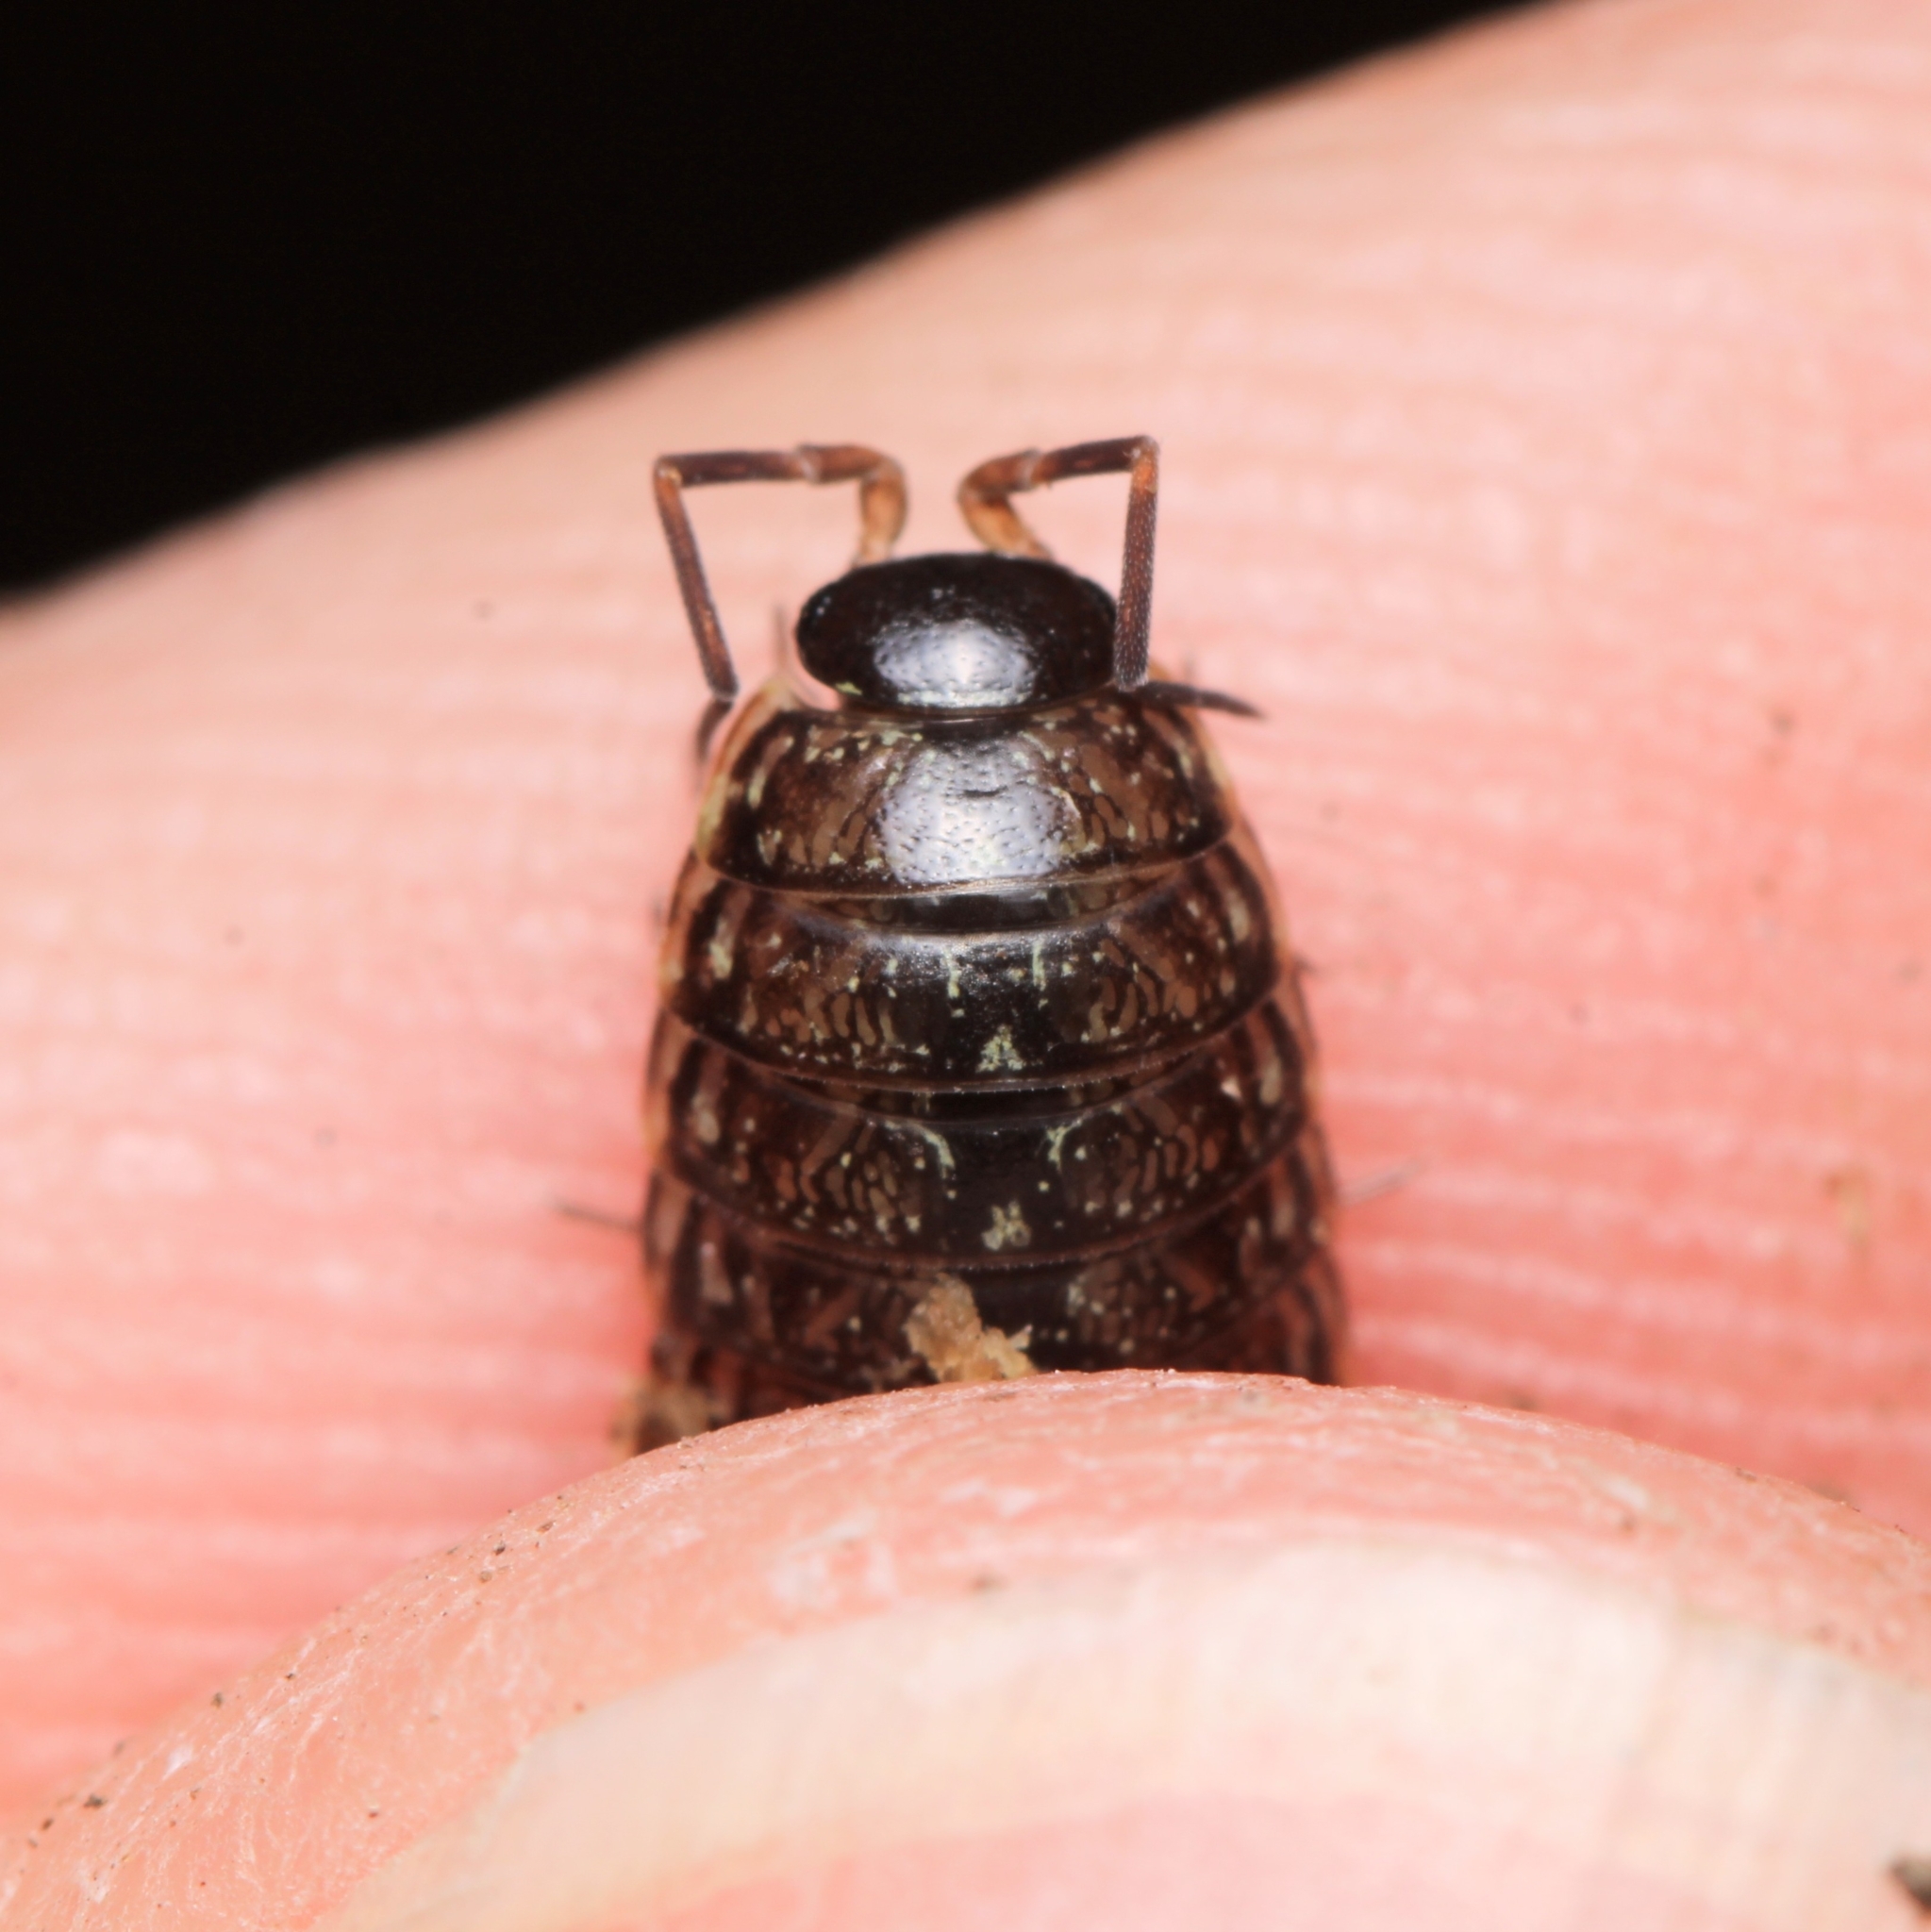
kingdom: Animalia
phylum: Arthropoda
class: Malacostraca
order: Isopoda
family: Philosciidae
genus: Philoscia
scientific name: Philoscia muscorum
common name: Common striped woodlouse
